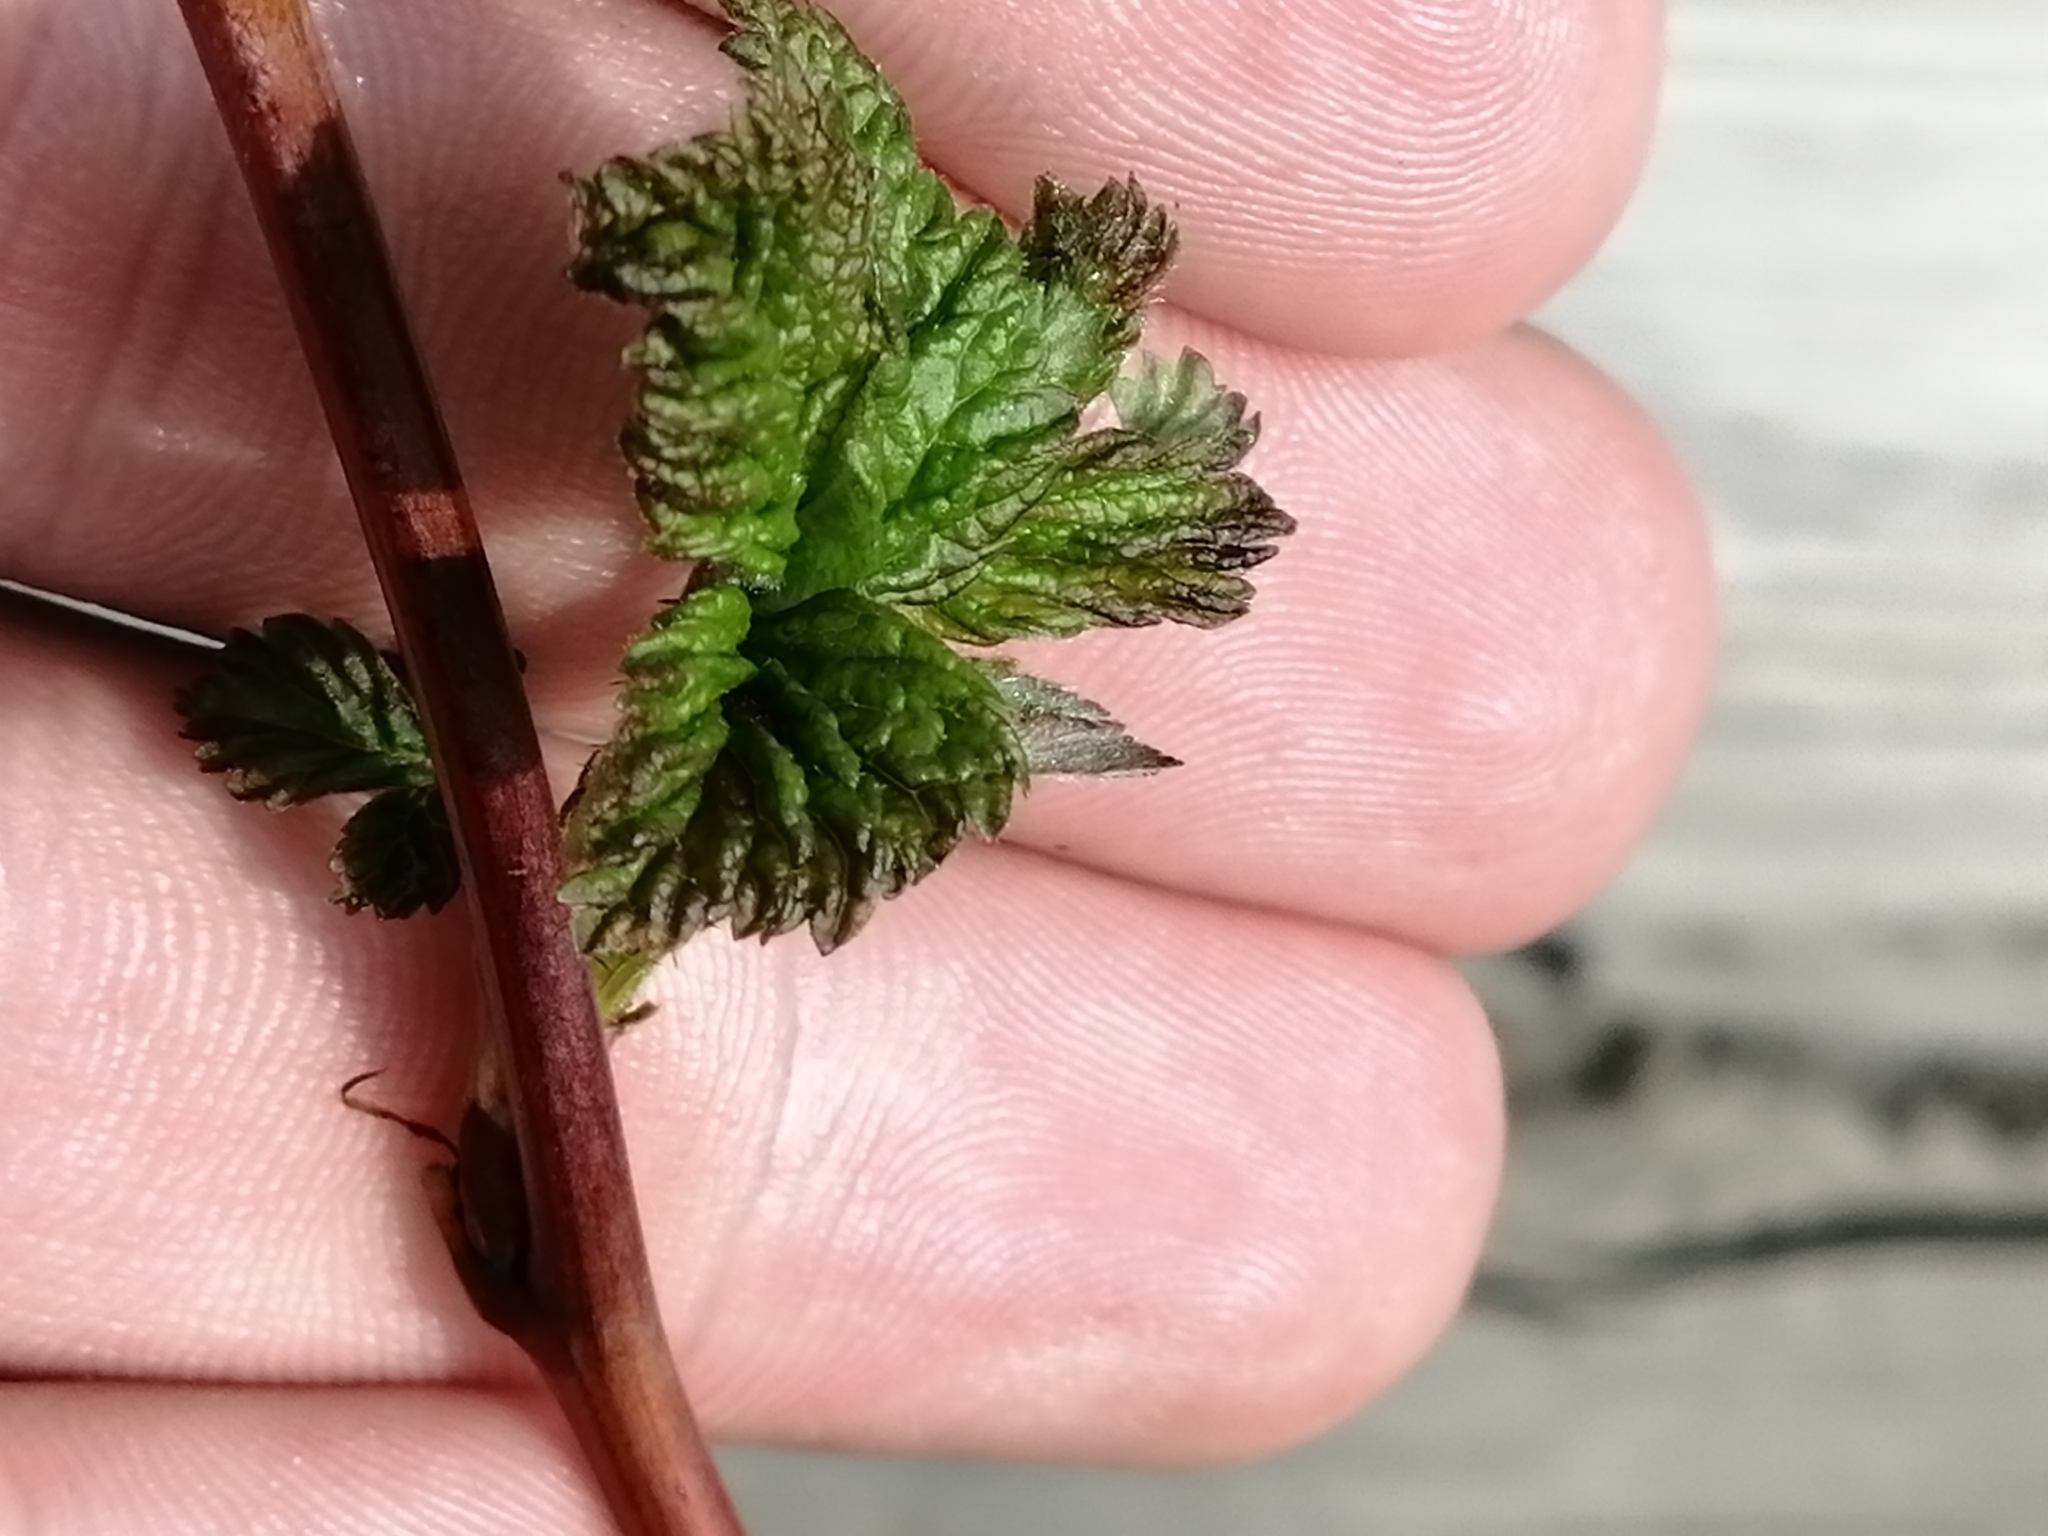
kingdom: Plantae
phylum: Tracheophyta
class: Magnoliopsida
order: Rosales
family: Rosaceae
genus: Rubus
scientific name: Rubus idaeus
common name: Raspberry
